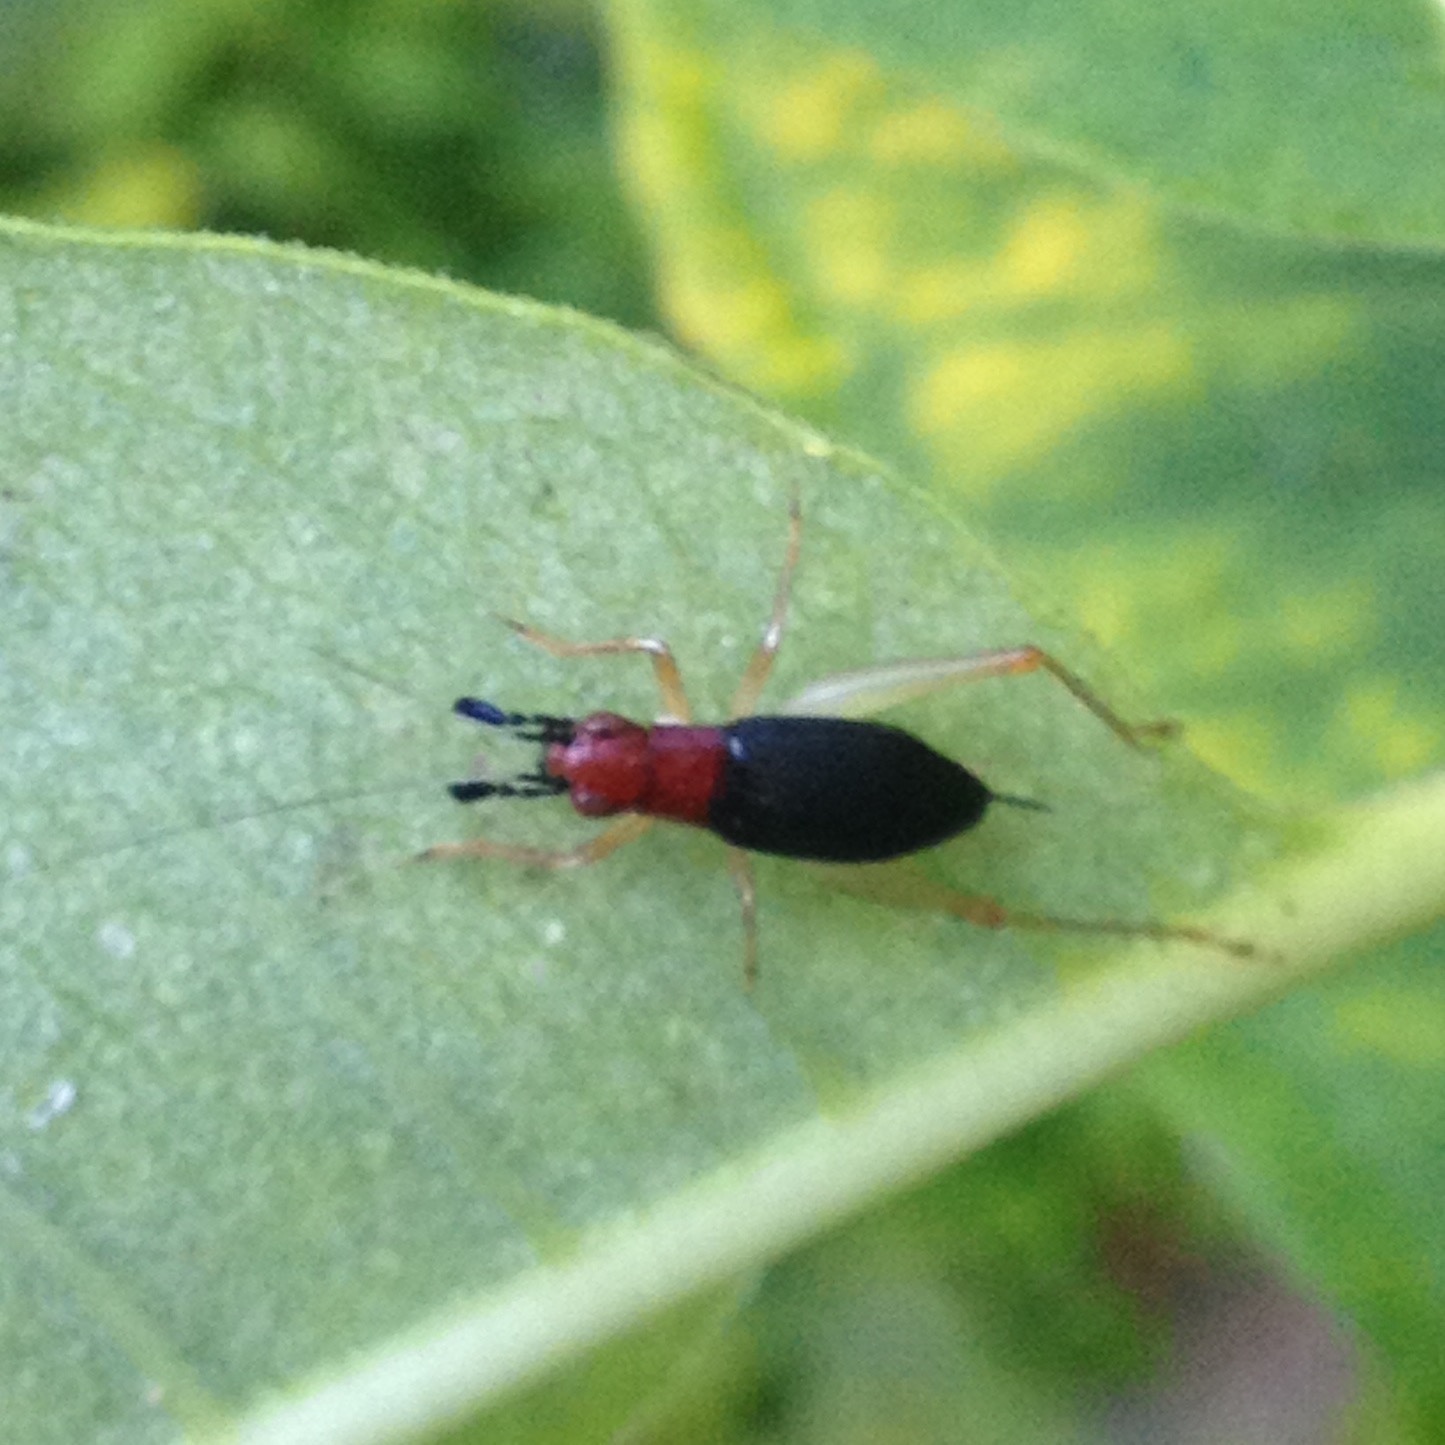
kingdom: Animalia
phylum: Arthropoda
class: Insecta
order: Orthoptera
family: Trigonidiidae
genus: Phyllopalpus
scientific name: Phyllopalpus pulchellus
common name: Handsome trig
